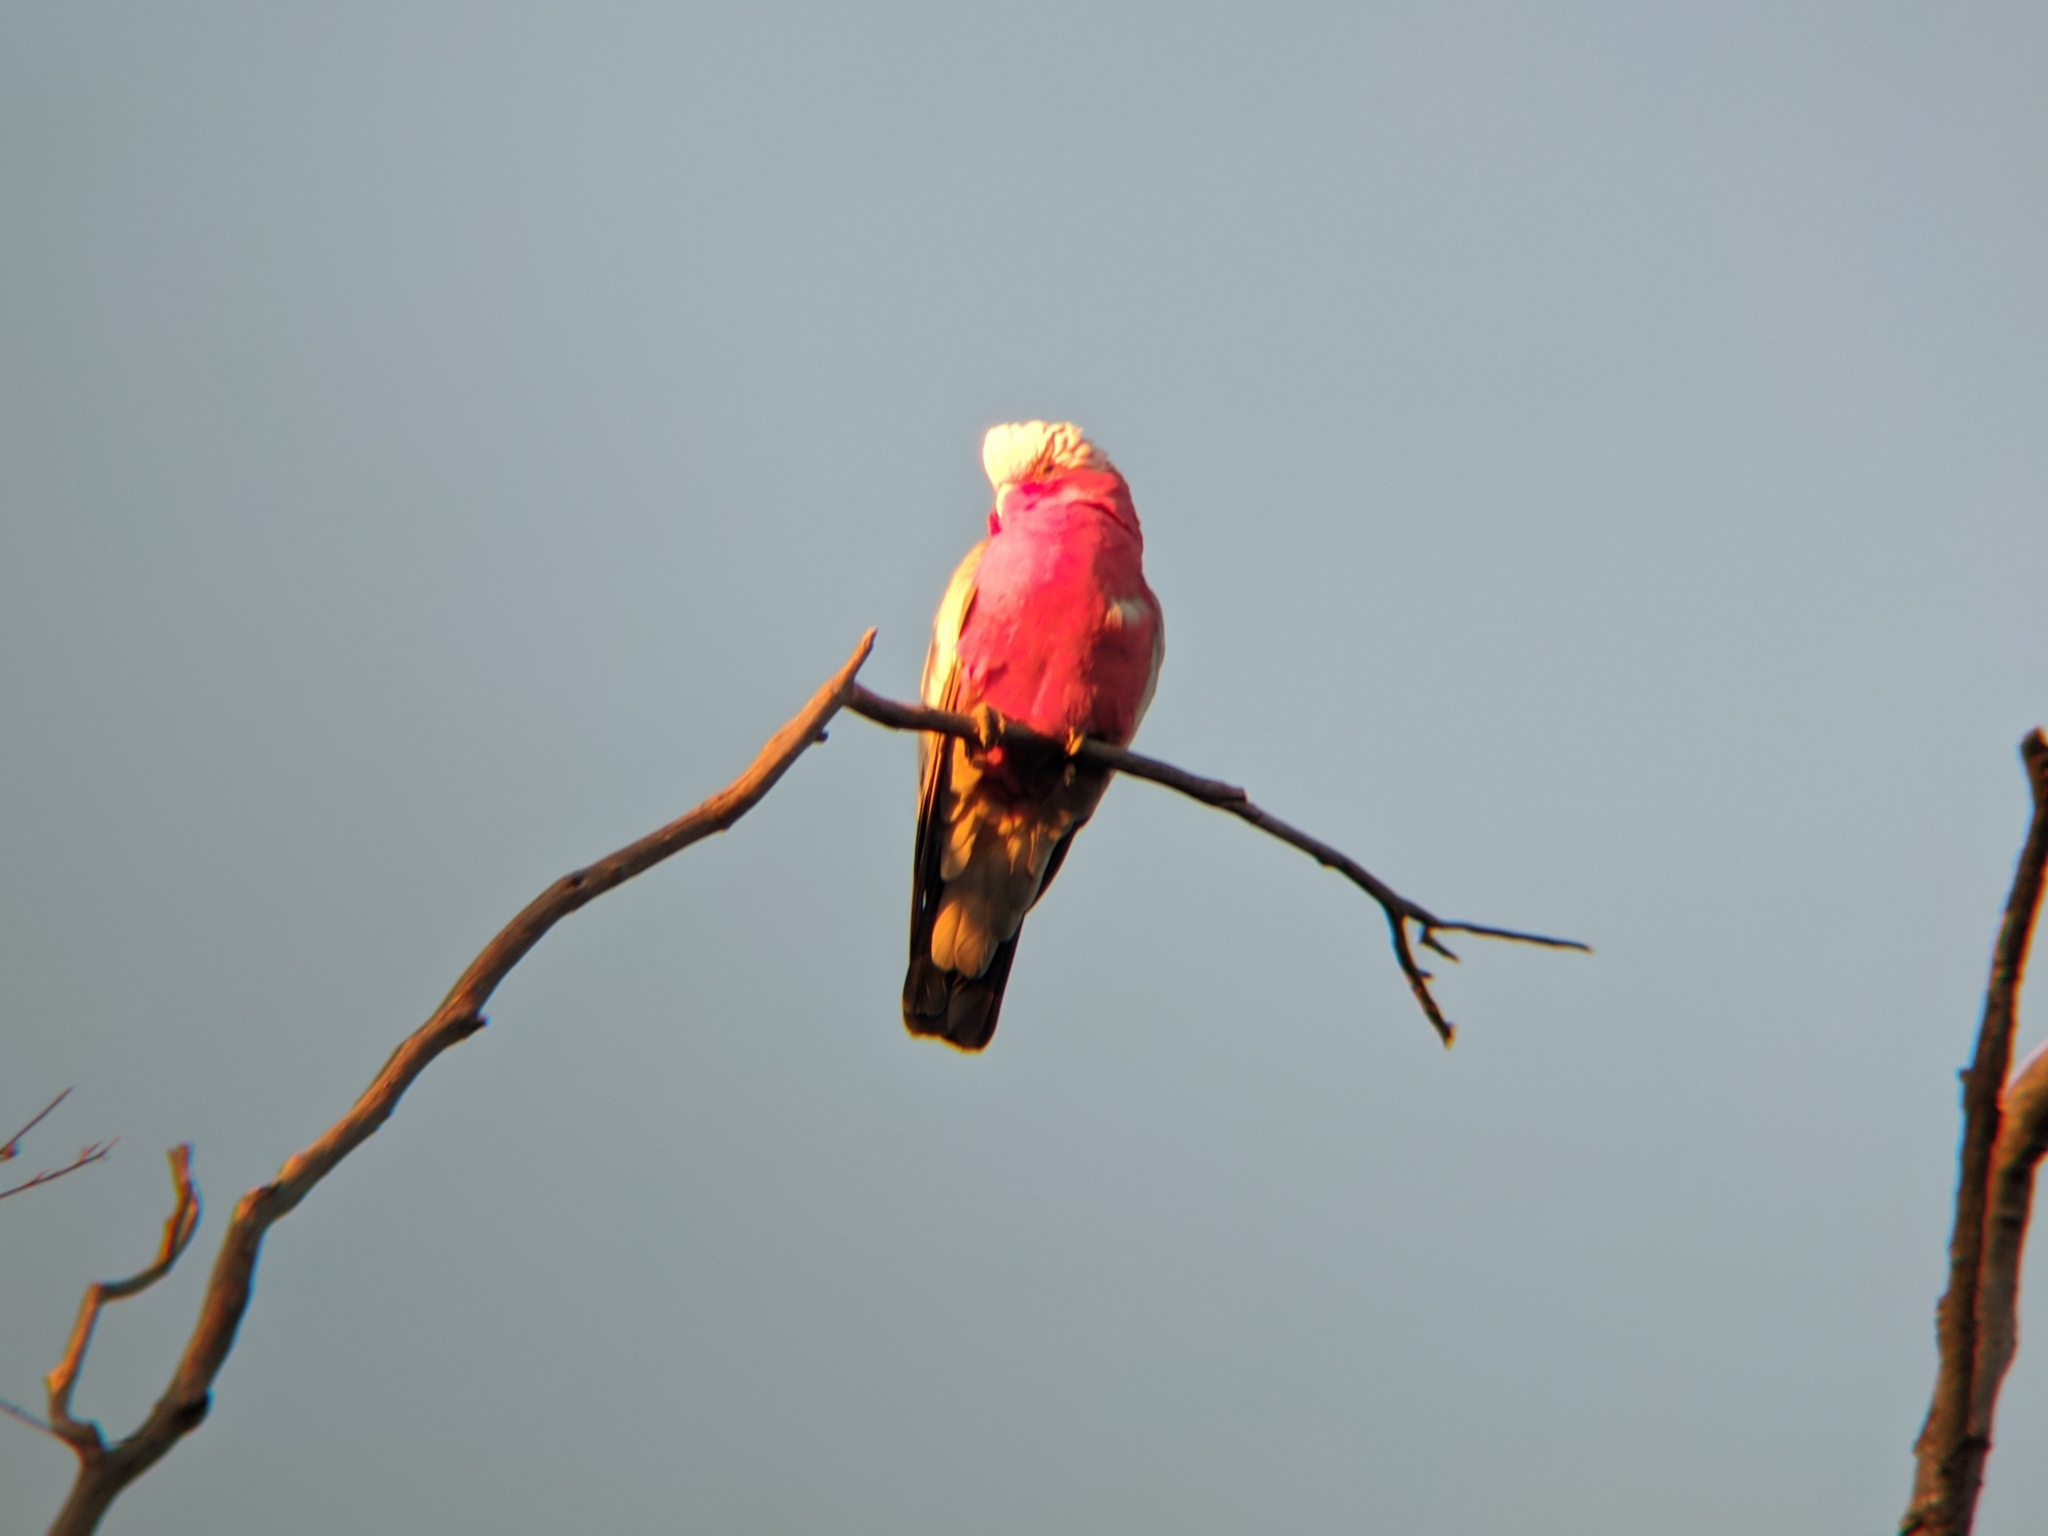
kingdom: Animalia
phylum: Chordata
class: Aves
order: Psittaciformes
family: Psittacidae
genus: Eolophus
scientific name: Eolophus roseicapilla
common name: Galah
